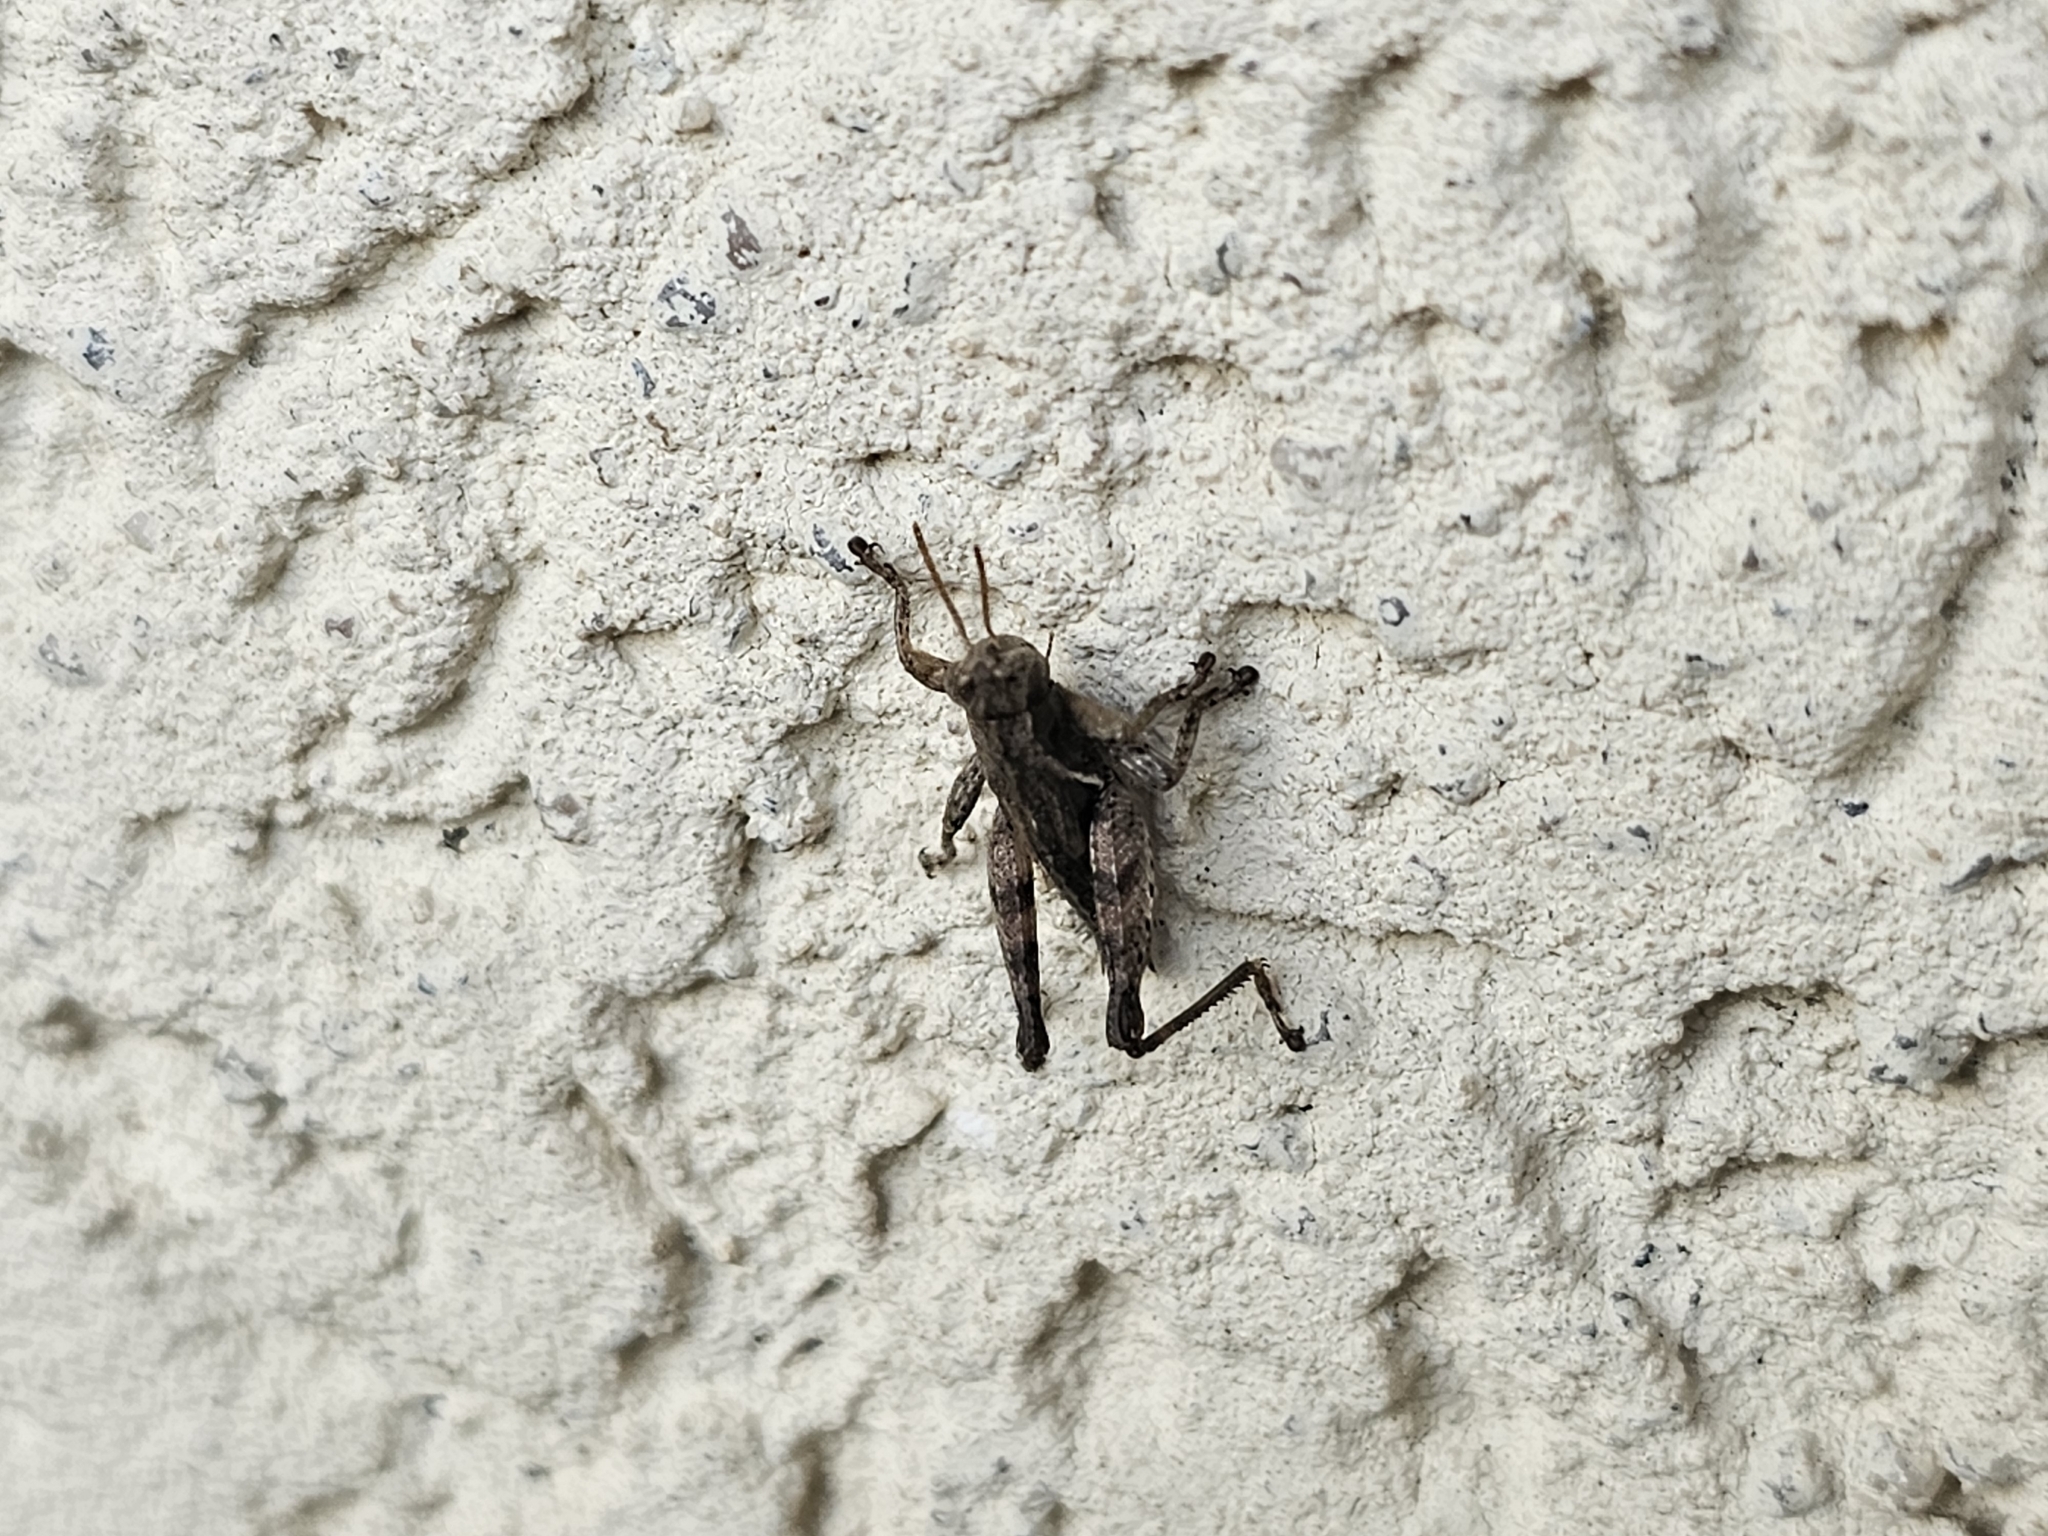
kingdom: Animalia
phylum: Arthropoda
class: Insecta
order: Orthoptera
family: Acrididae
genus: Pezotettix
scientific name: Pezotettix giornae
